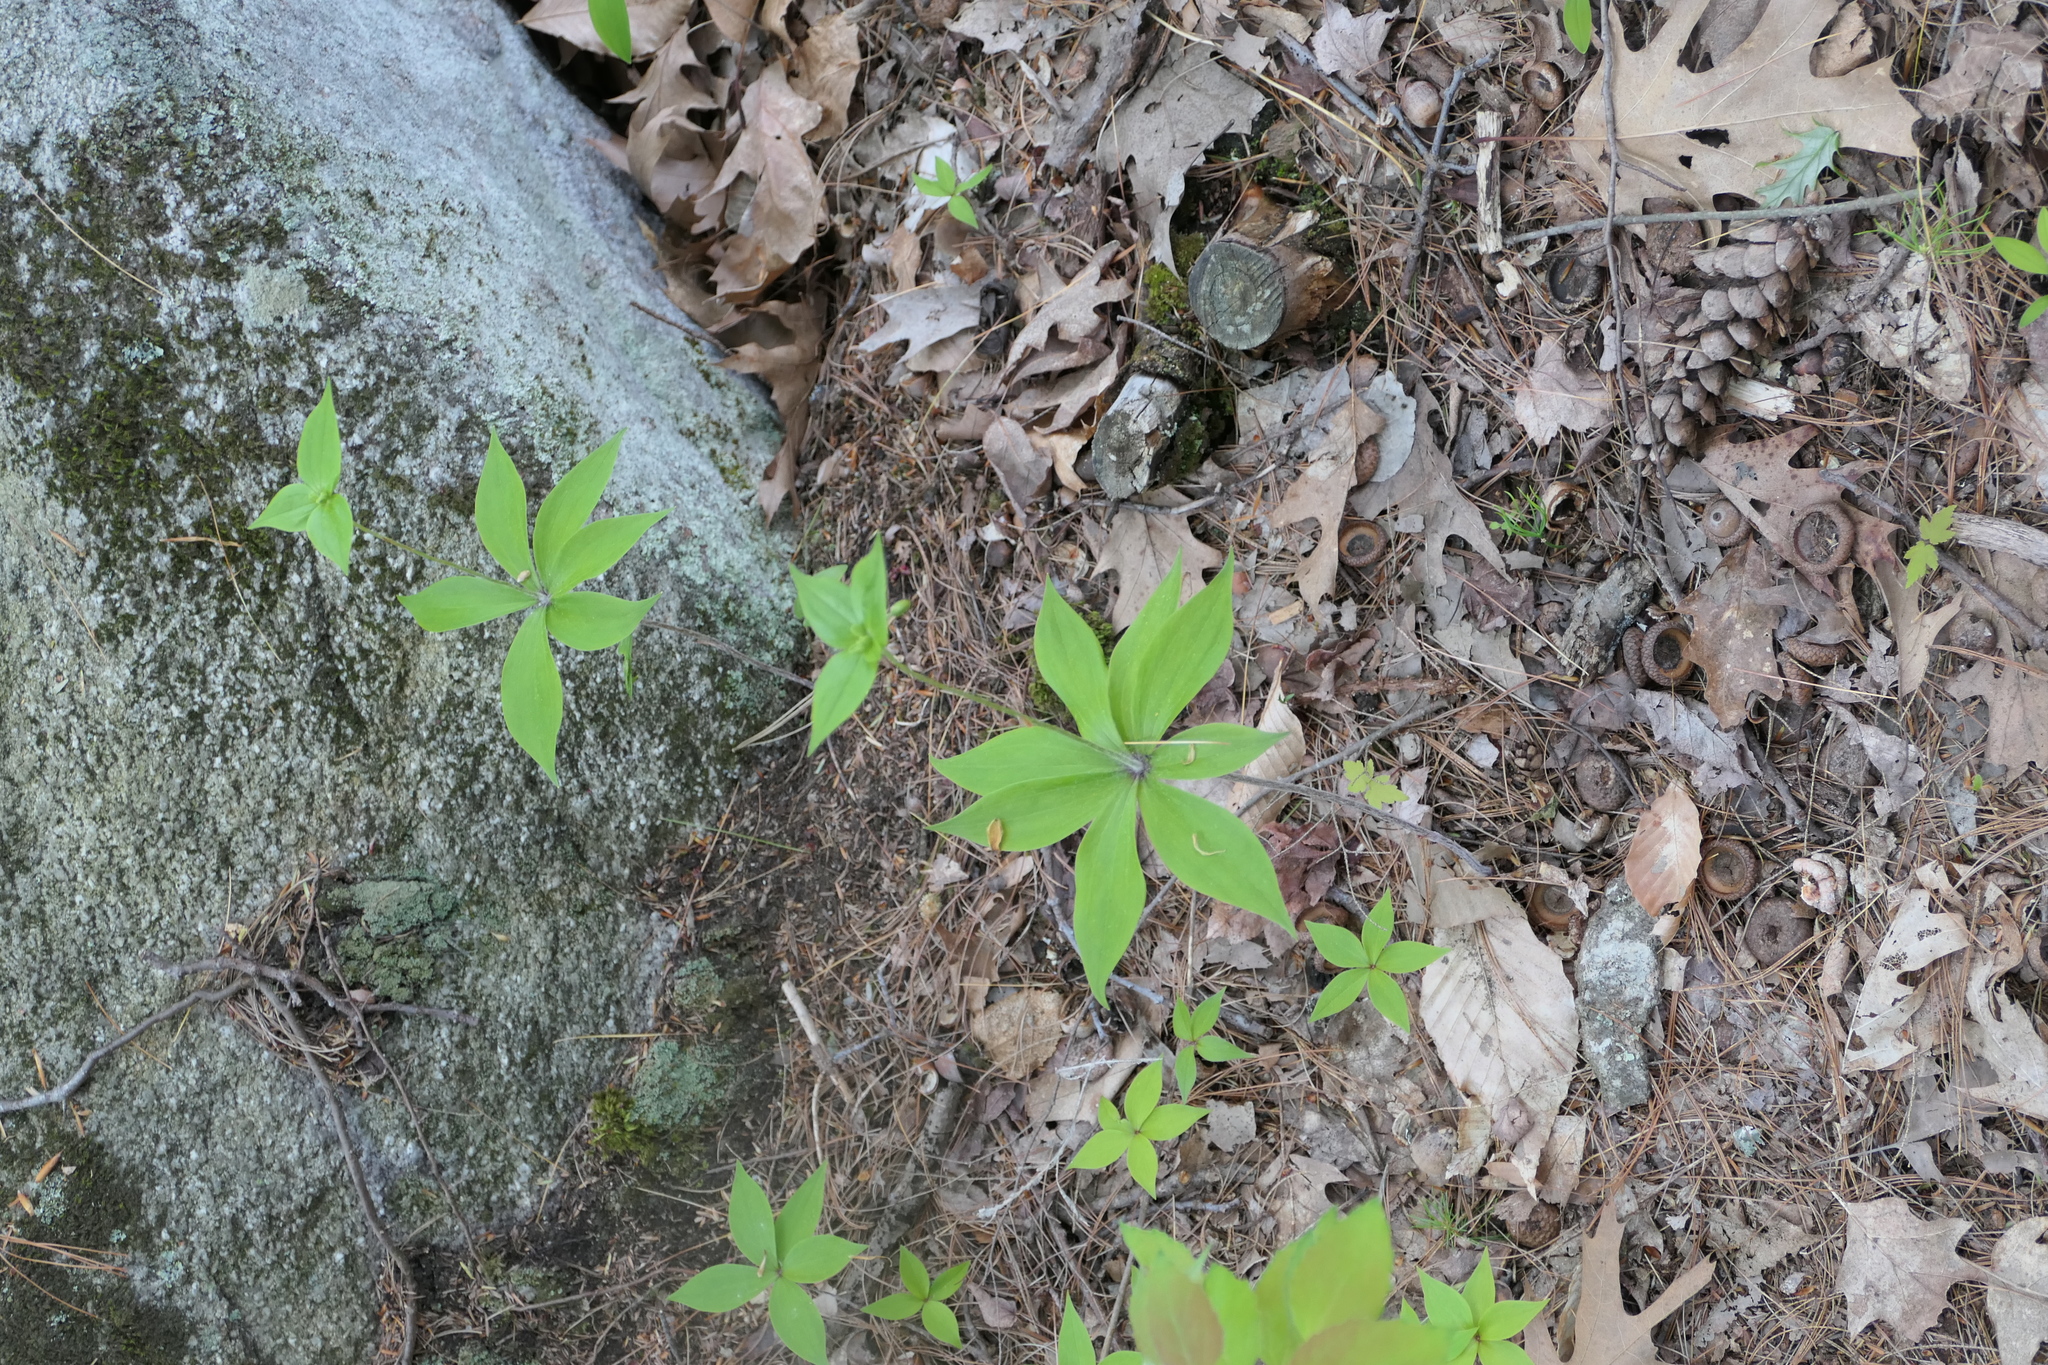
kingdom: Plantae
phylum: Tracheophyta
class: Liliopsida
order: Liliales
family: Liliaceae
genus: Medeola
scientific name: Medeola virginiana
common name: Indian cucumber-root
